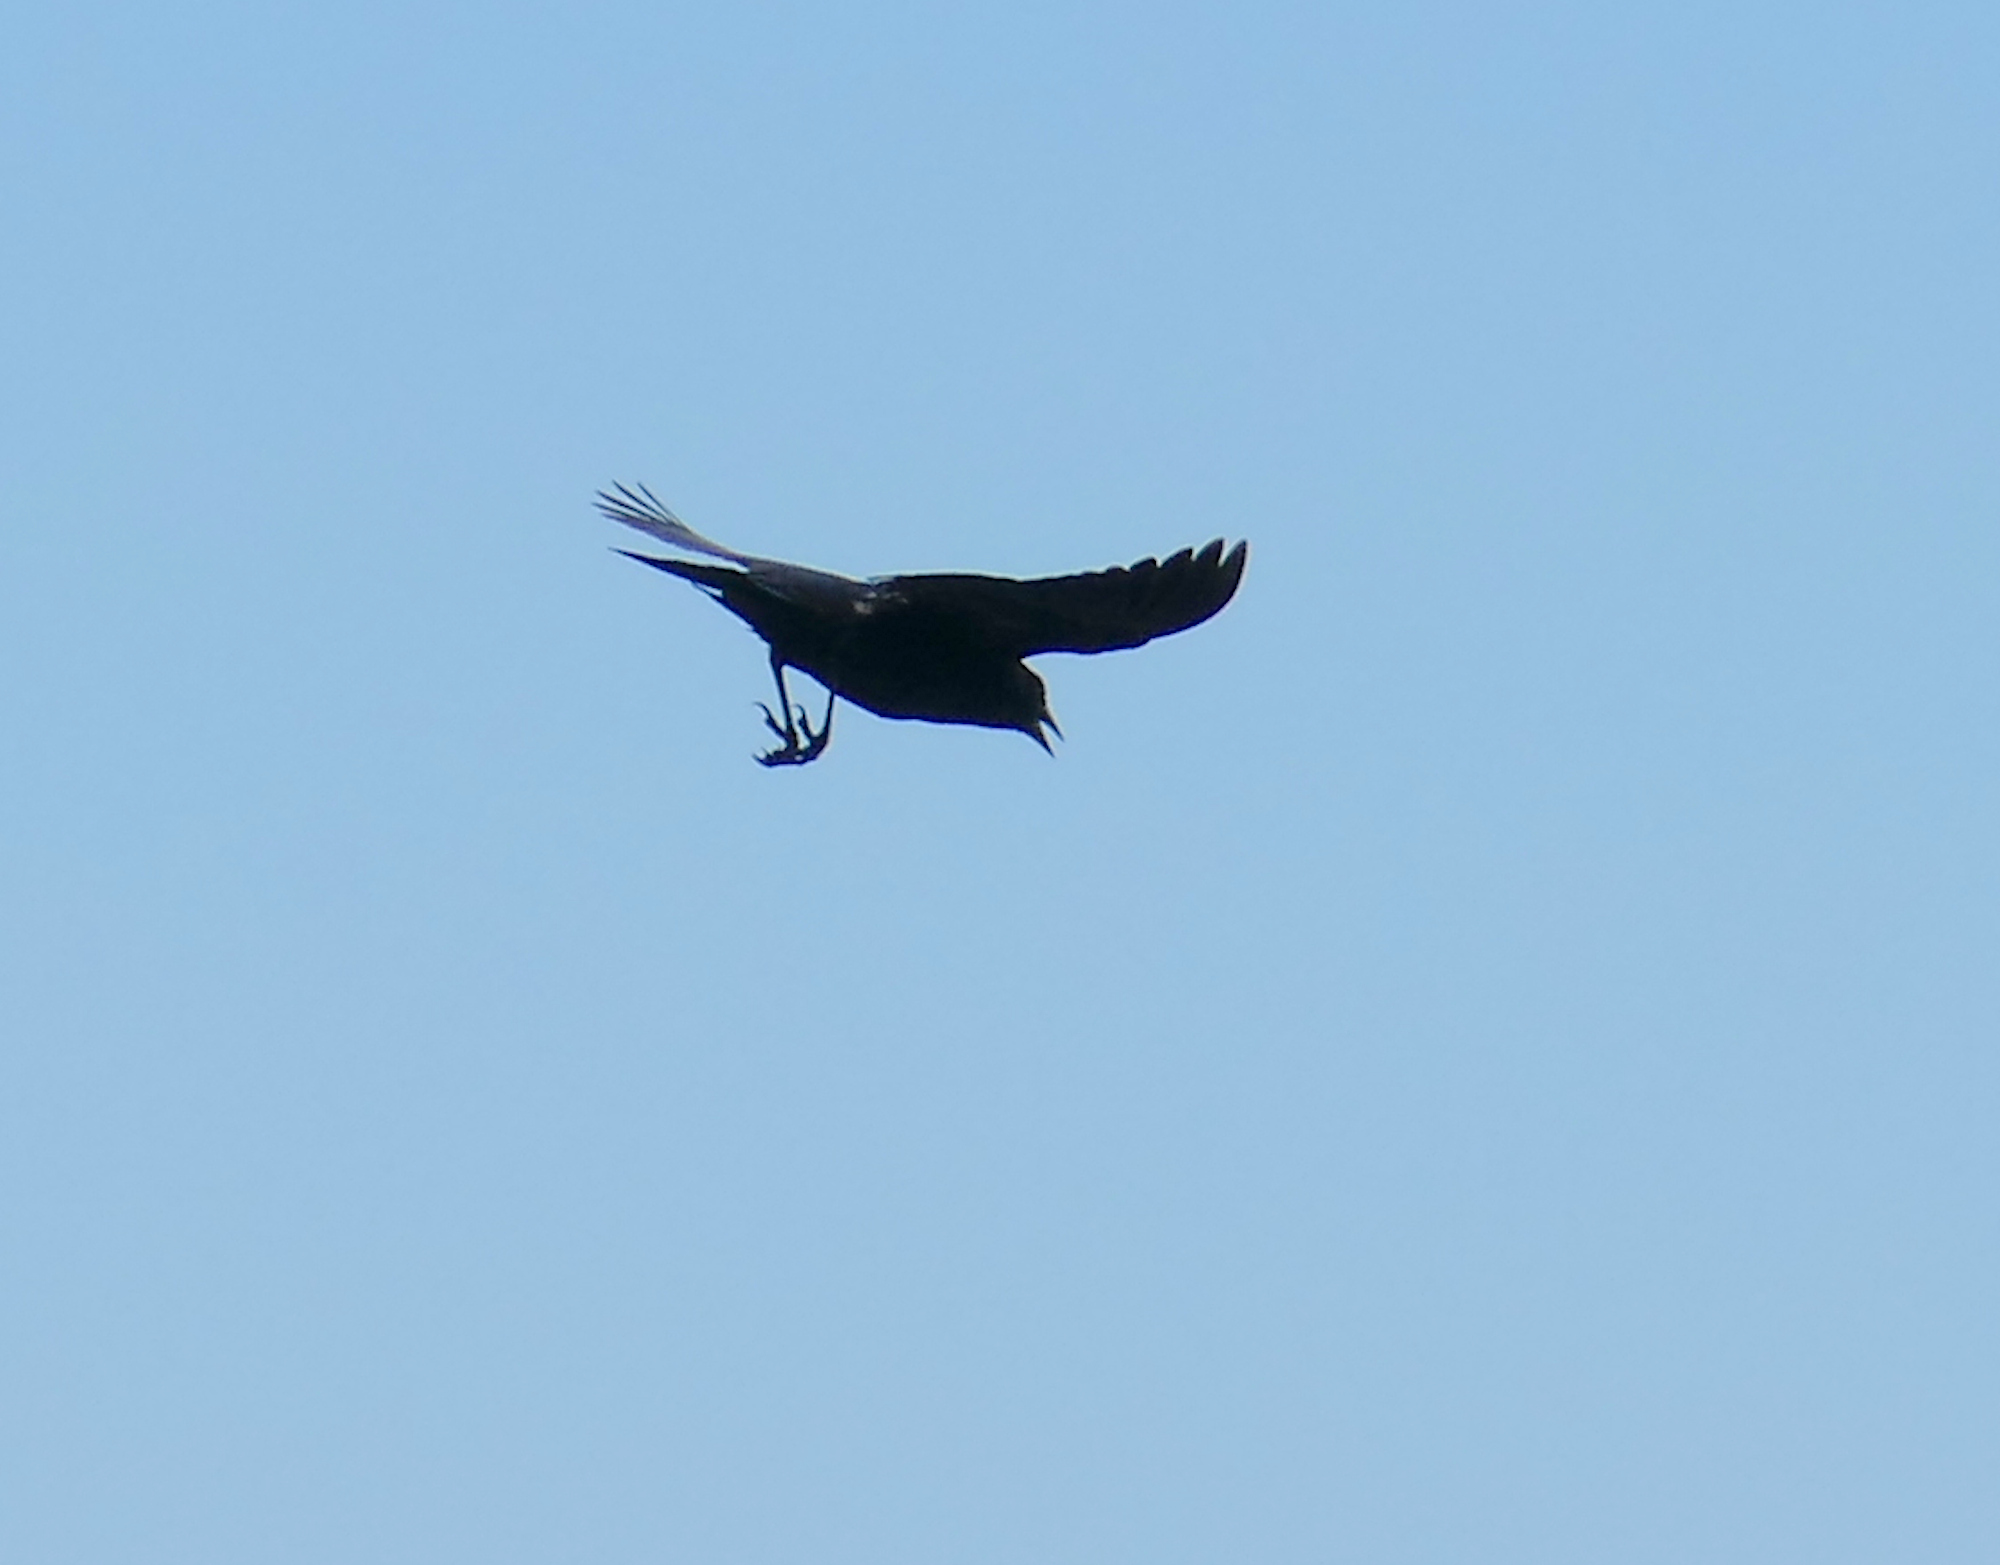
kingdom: Animalia
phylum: Chordata
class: Aves
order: Passeriformes
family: Corvidae
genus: Corvus
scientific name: Corvus brachyrhynchos
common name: American crow
